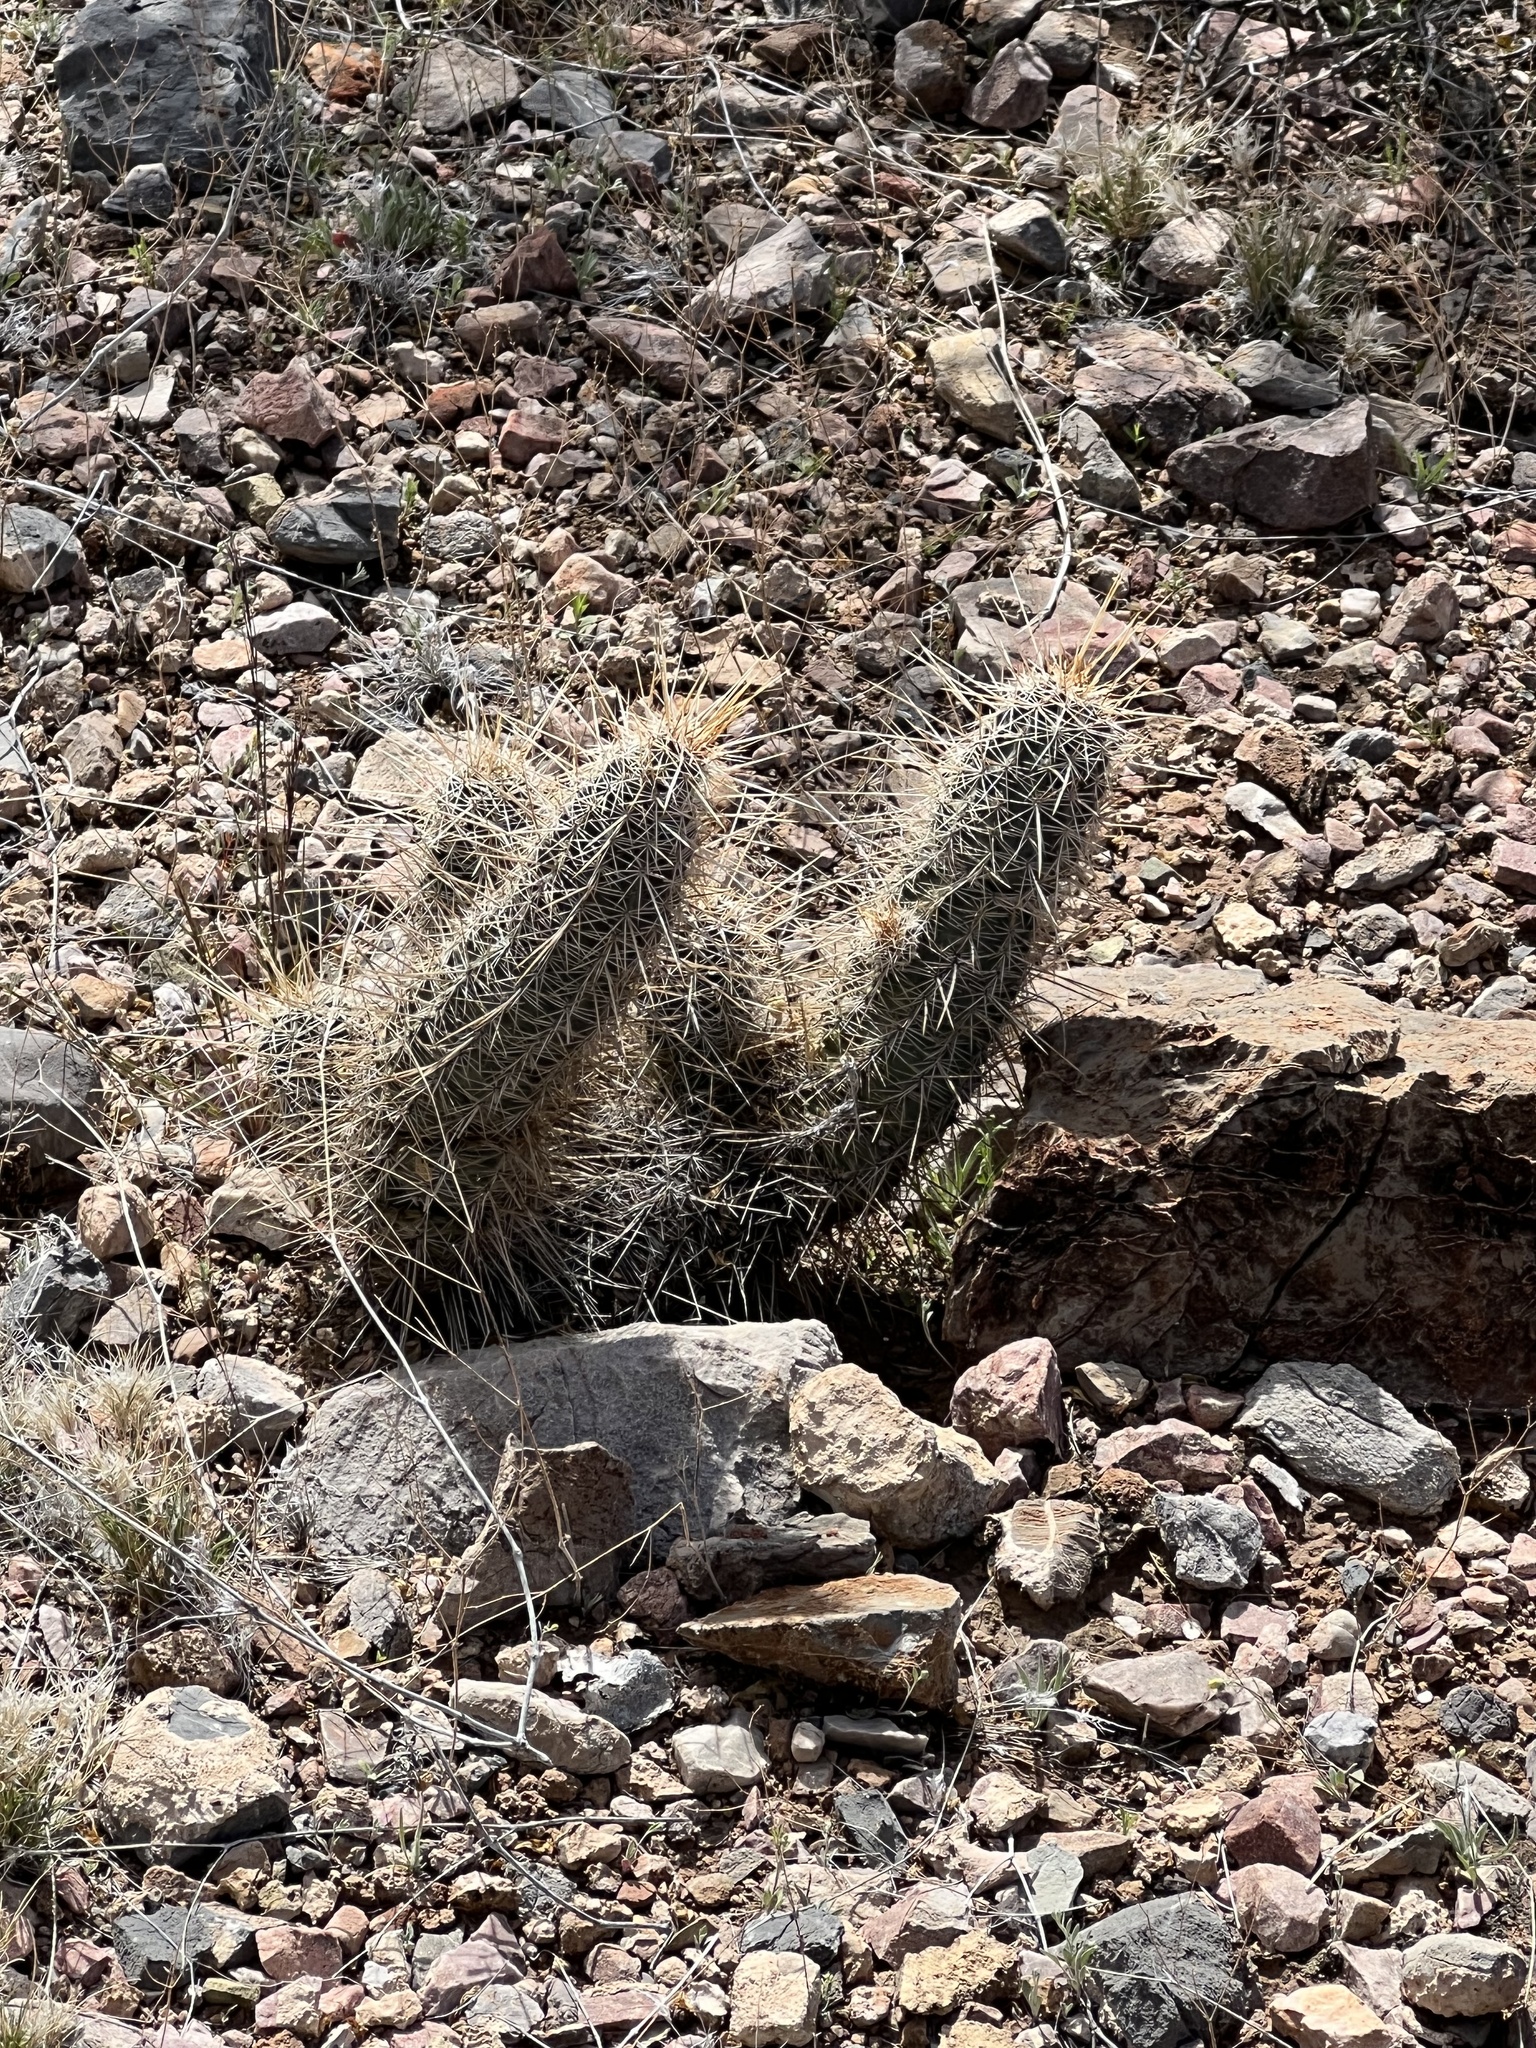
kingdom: Plantae
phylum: Tracheophyta
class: Magnoliopsida
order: Caryophyllales
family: Cactaceae
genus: Echinocereus
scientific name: Echinocereus fasciculatus
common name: Bundle hedgehog
